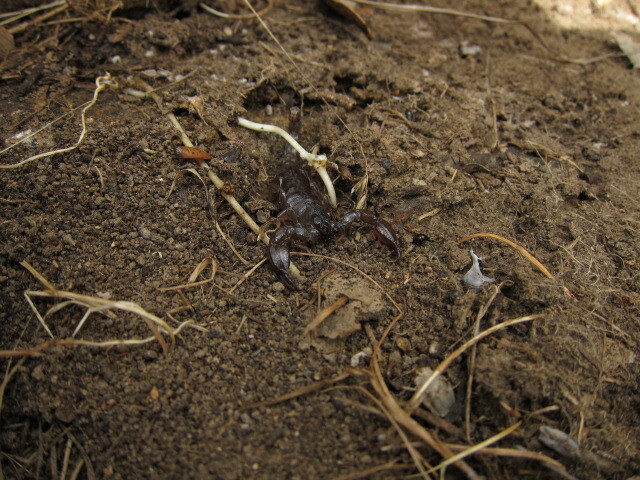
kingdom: Animalia
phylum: Arthropoda
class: Arachnida
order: Scorpiones
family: Scorpionidae
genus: Urodacus
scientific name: Urodacus manicatus
